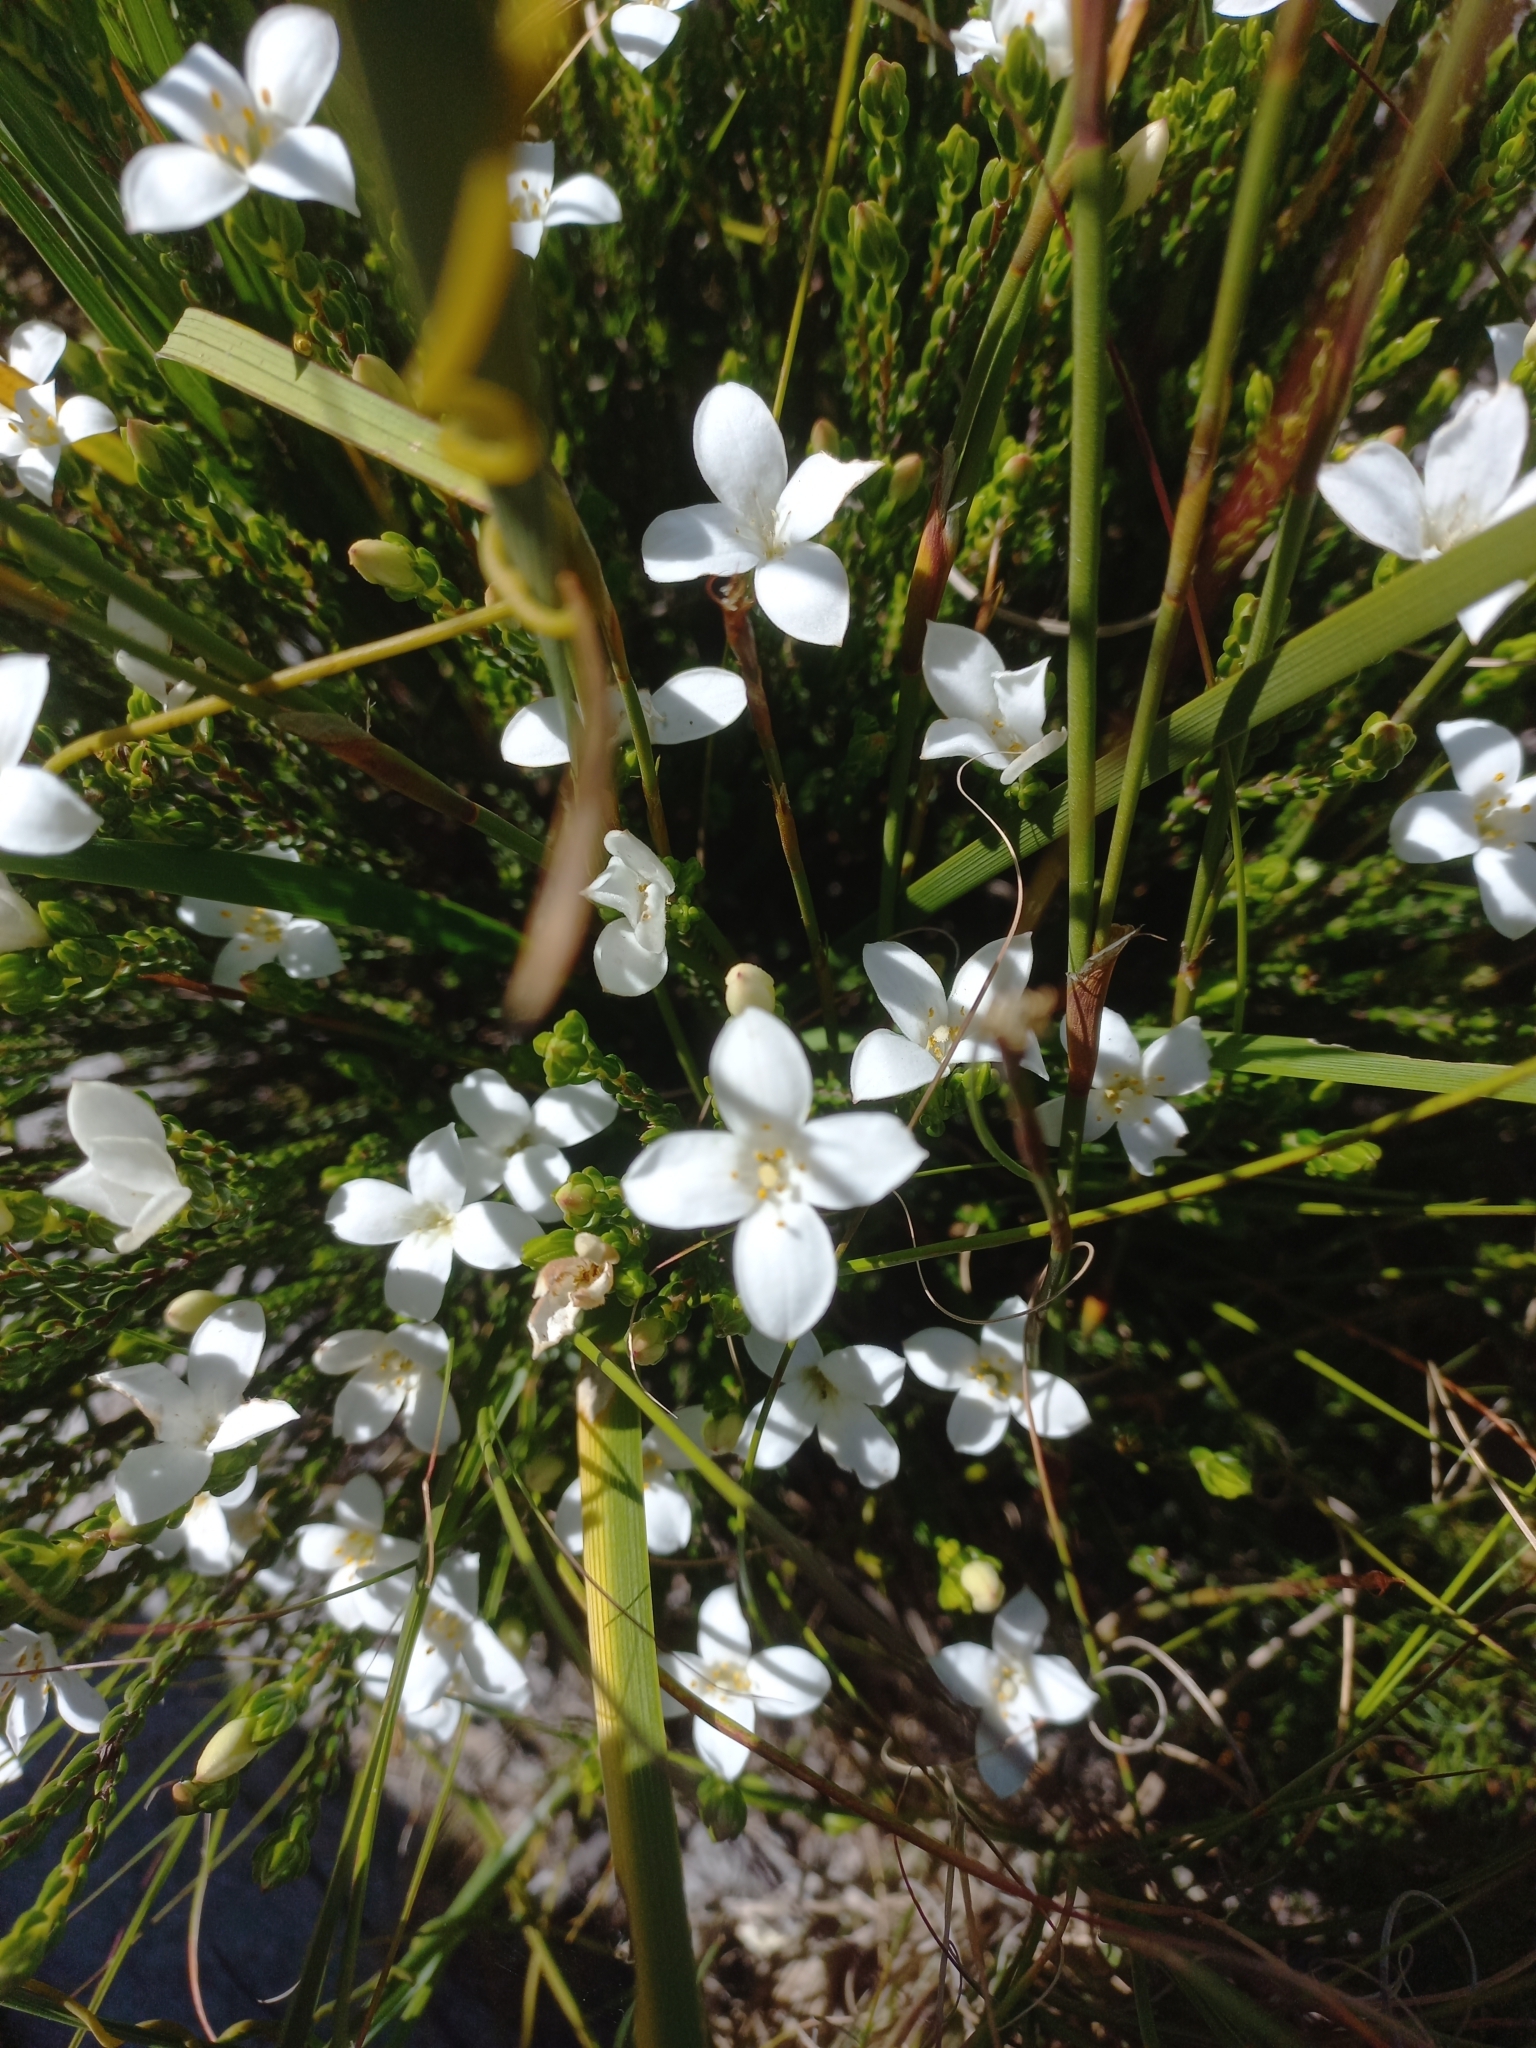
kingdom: Plantae
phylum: Tracheophyta
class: Magnoliopsida
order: Malvales
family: Thymelaeaceae
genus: Lachnaea
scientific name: Lachnaea grandiflora
